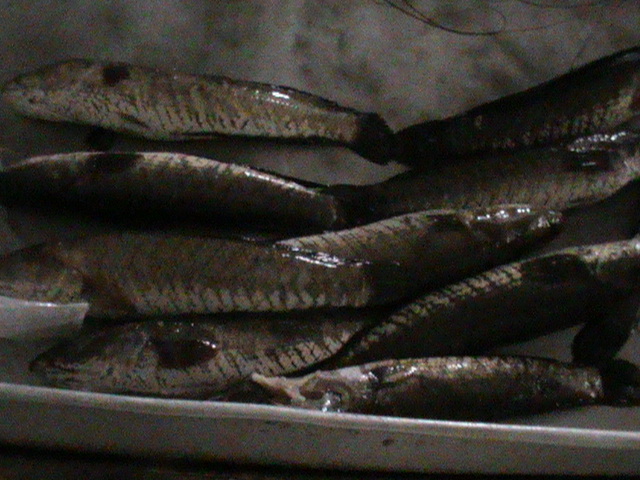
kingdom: Animalia
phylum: Chordata
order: Perciformes
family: Channidae
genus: Channa
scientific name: Channa striata
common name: Striped snakehead
